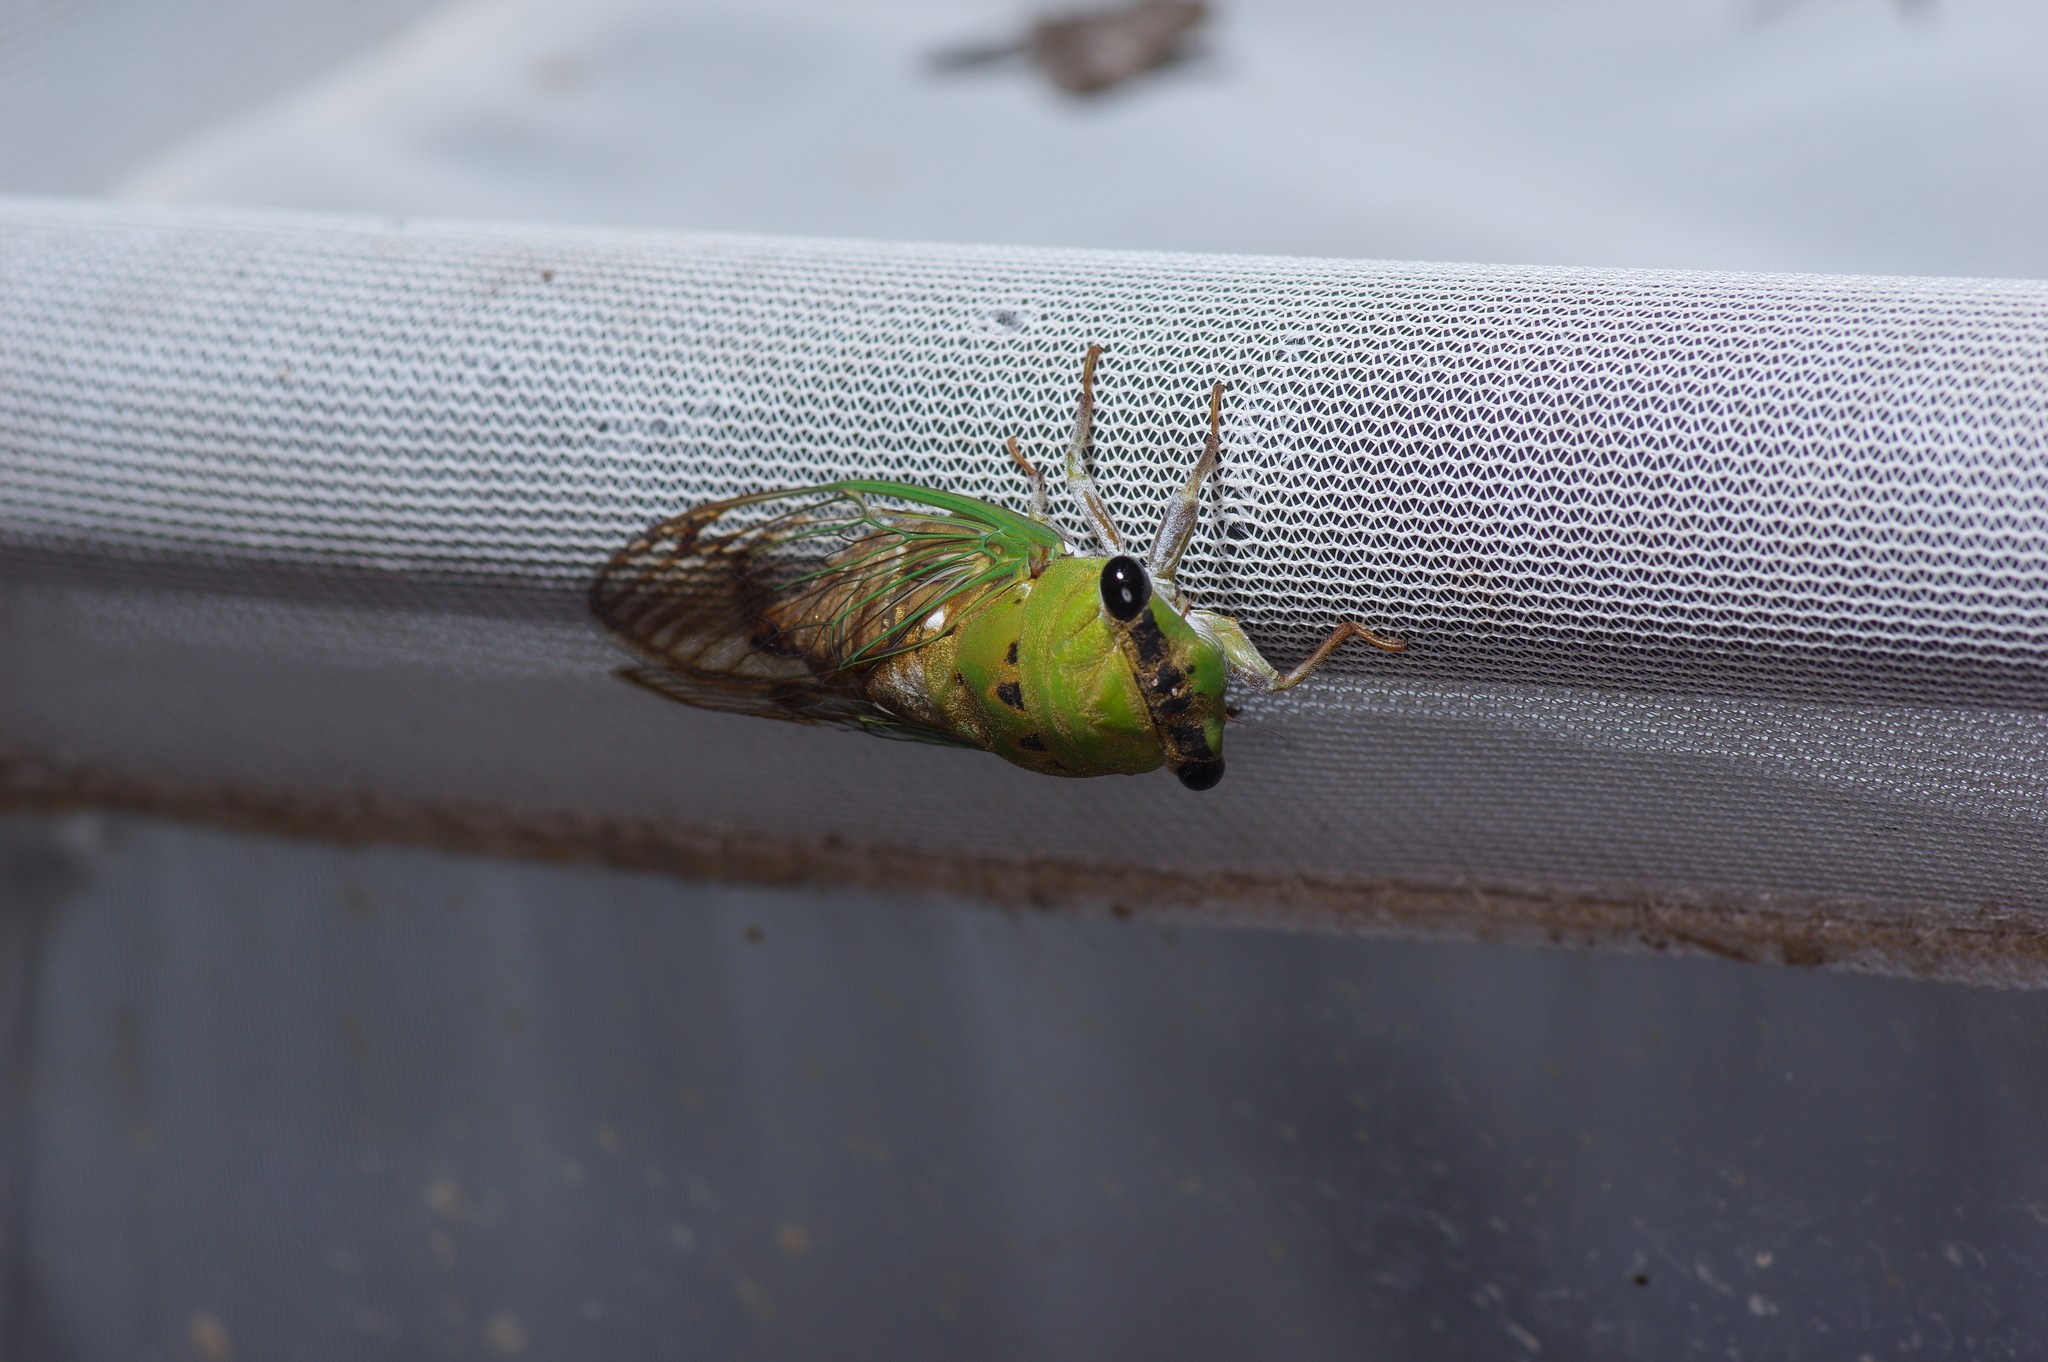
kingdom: Animalia
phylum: Arthropoda
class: Insecta
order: Hemiptera
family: Cicadidae
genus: Neotibicen
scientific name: Neotibicen superbus
